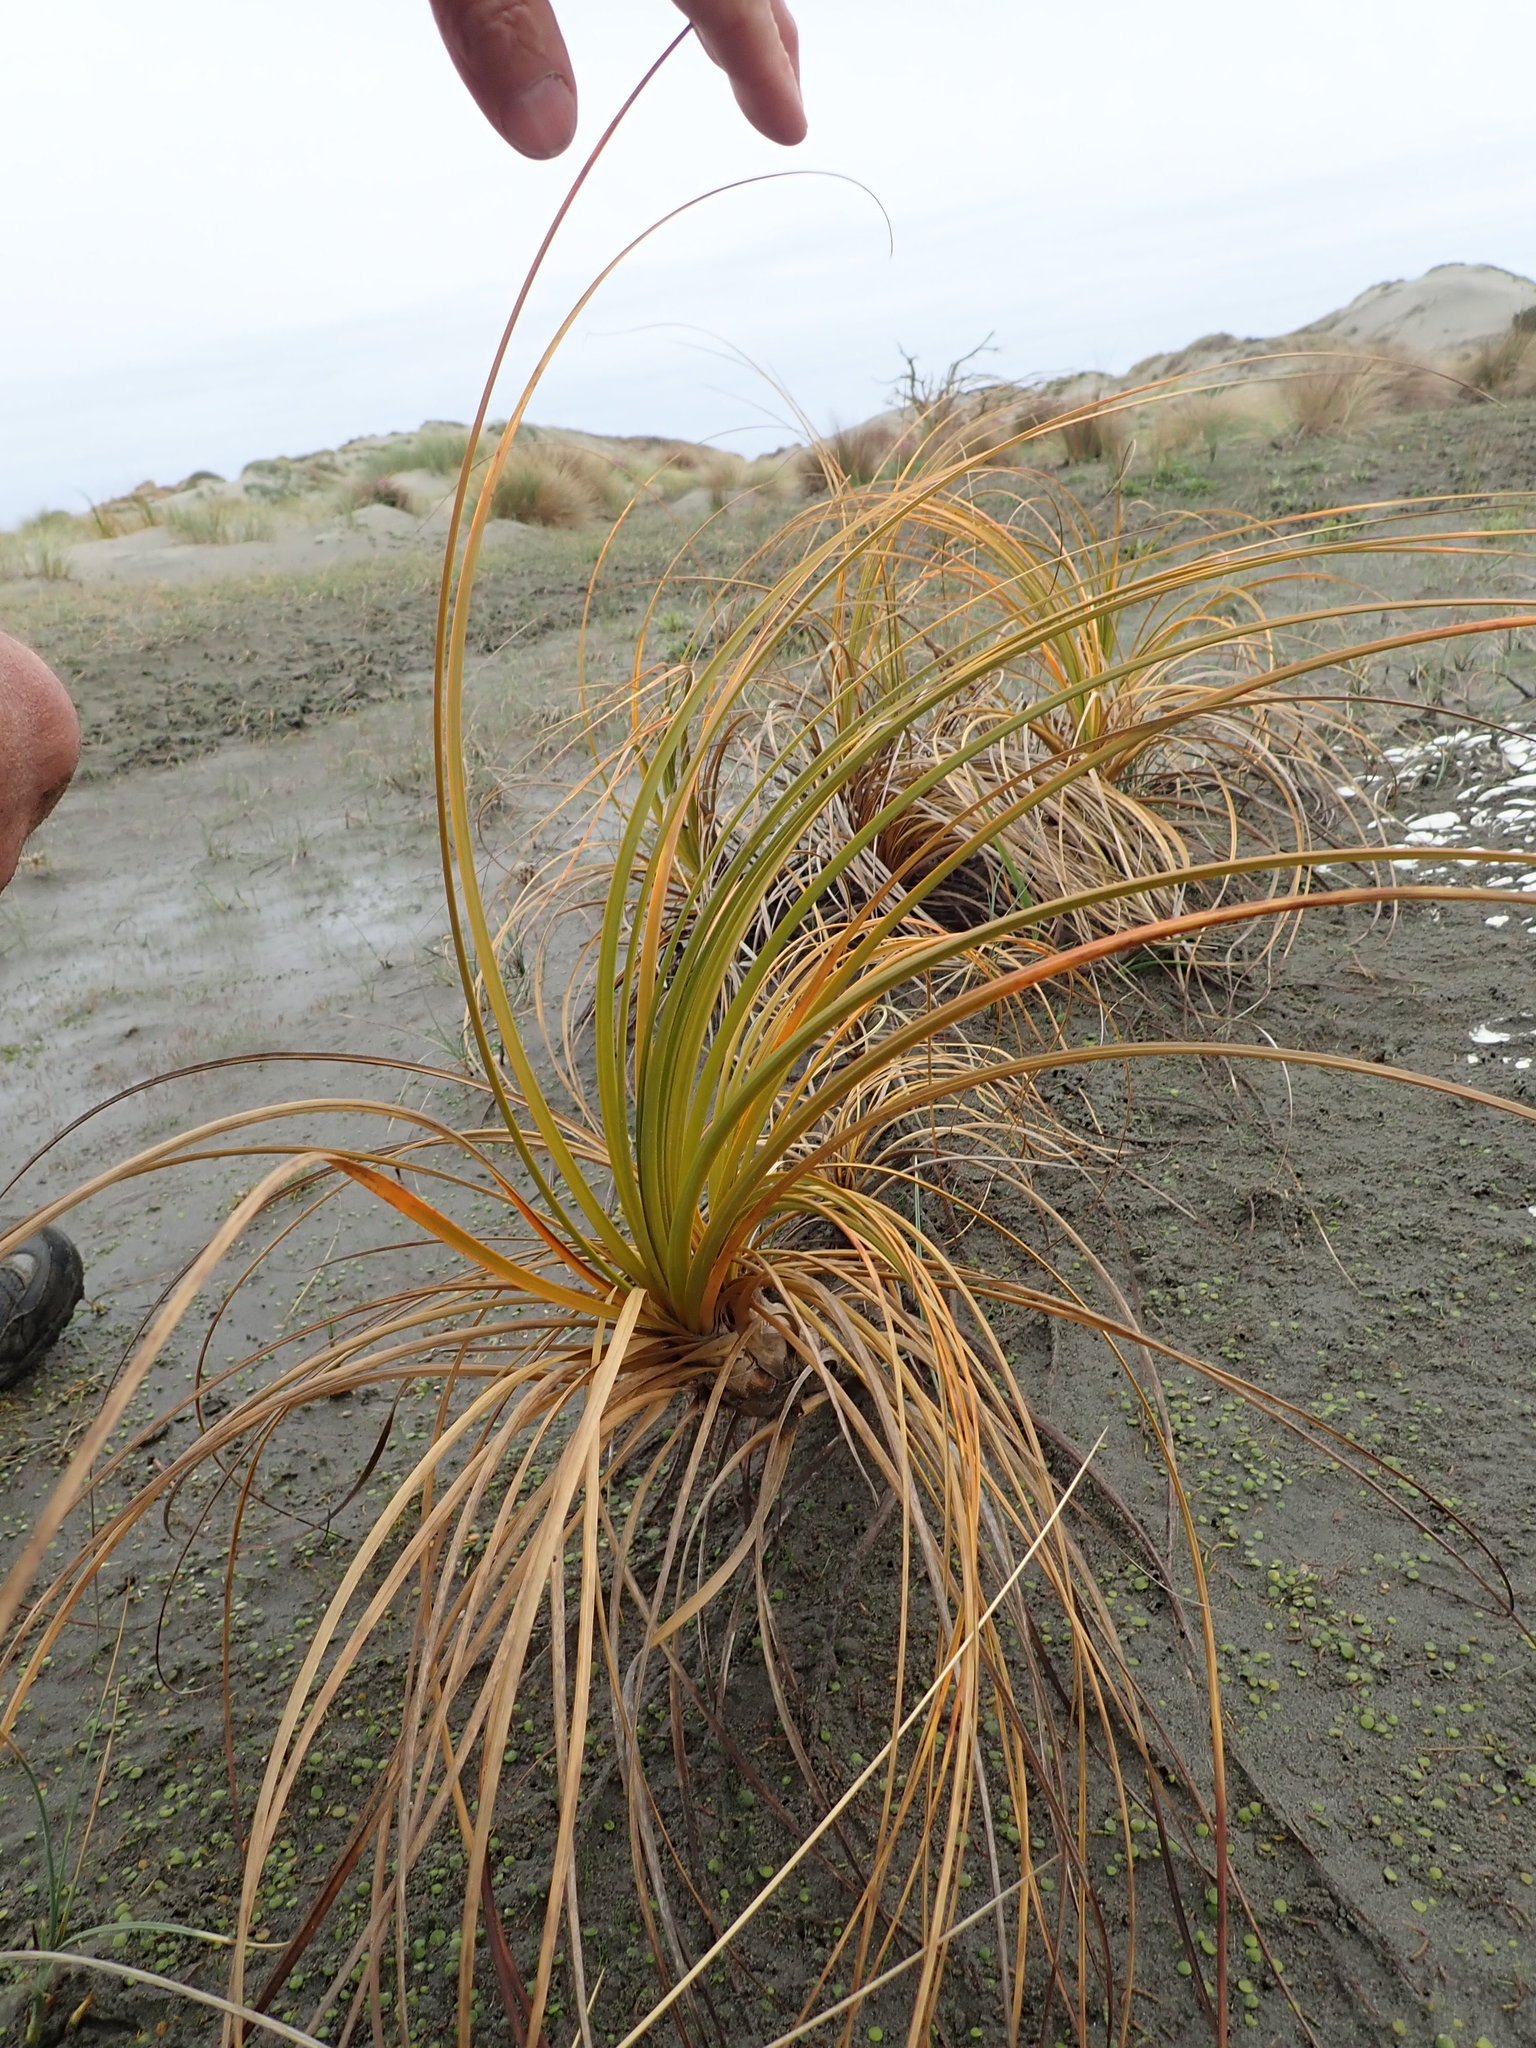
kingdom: Plantae
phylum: Tracheophyta
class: Liliopsida
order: Poales
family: Cyperaceae
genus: Ficinia
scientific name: Ficinia spiralis
